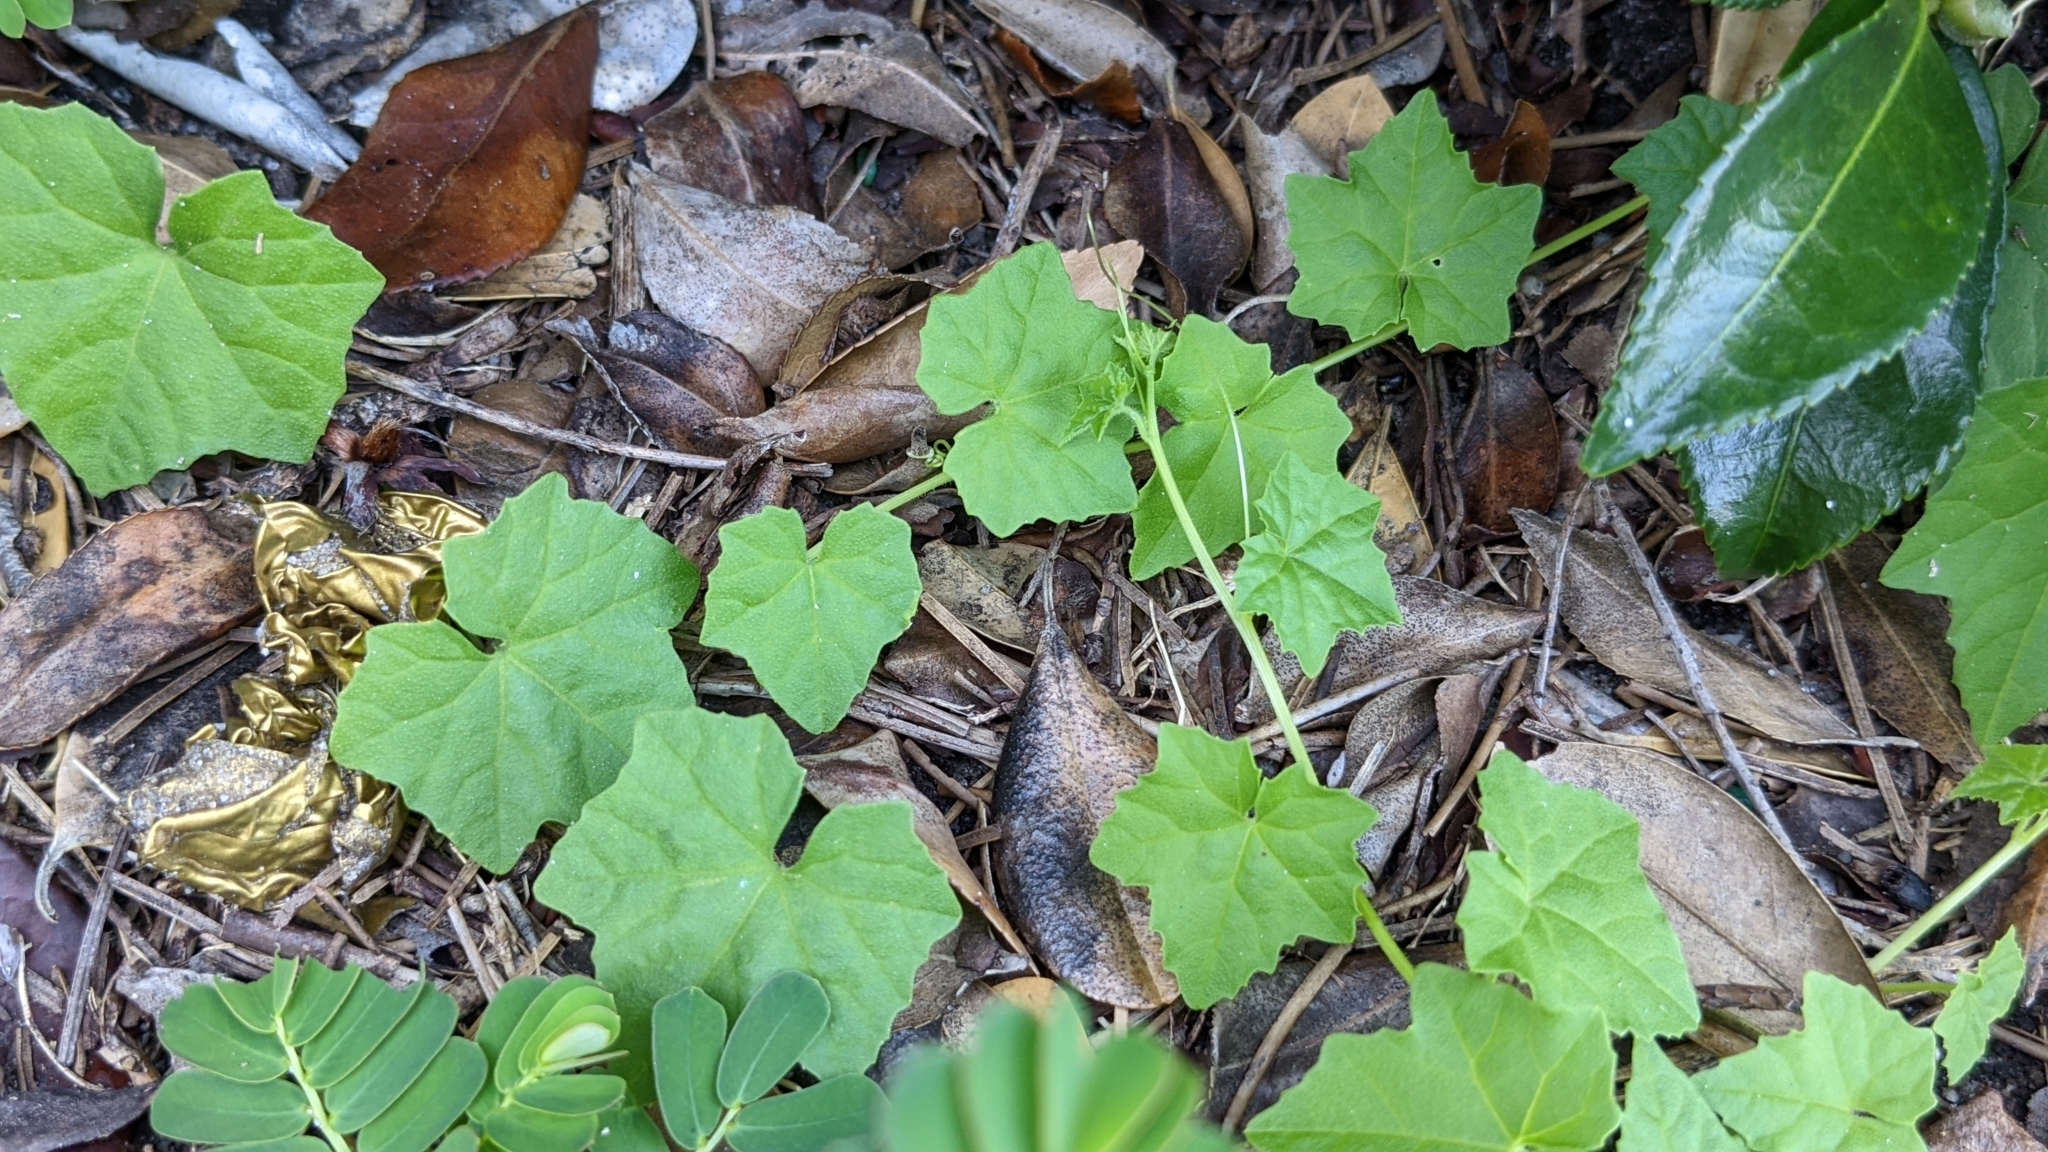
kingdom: Plantae
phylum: Tracheophyta
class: Magnoliopsida
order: Cucurbitales
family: Cucurbitaceae
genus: Melothria
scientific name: Melothria pendula
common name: Creeping-cucumber
